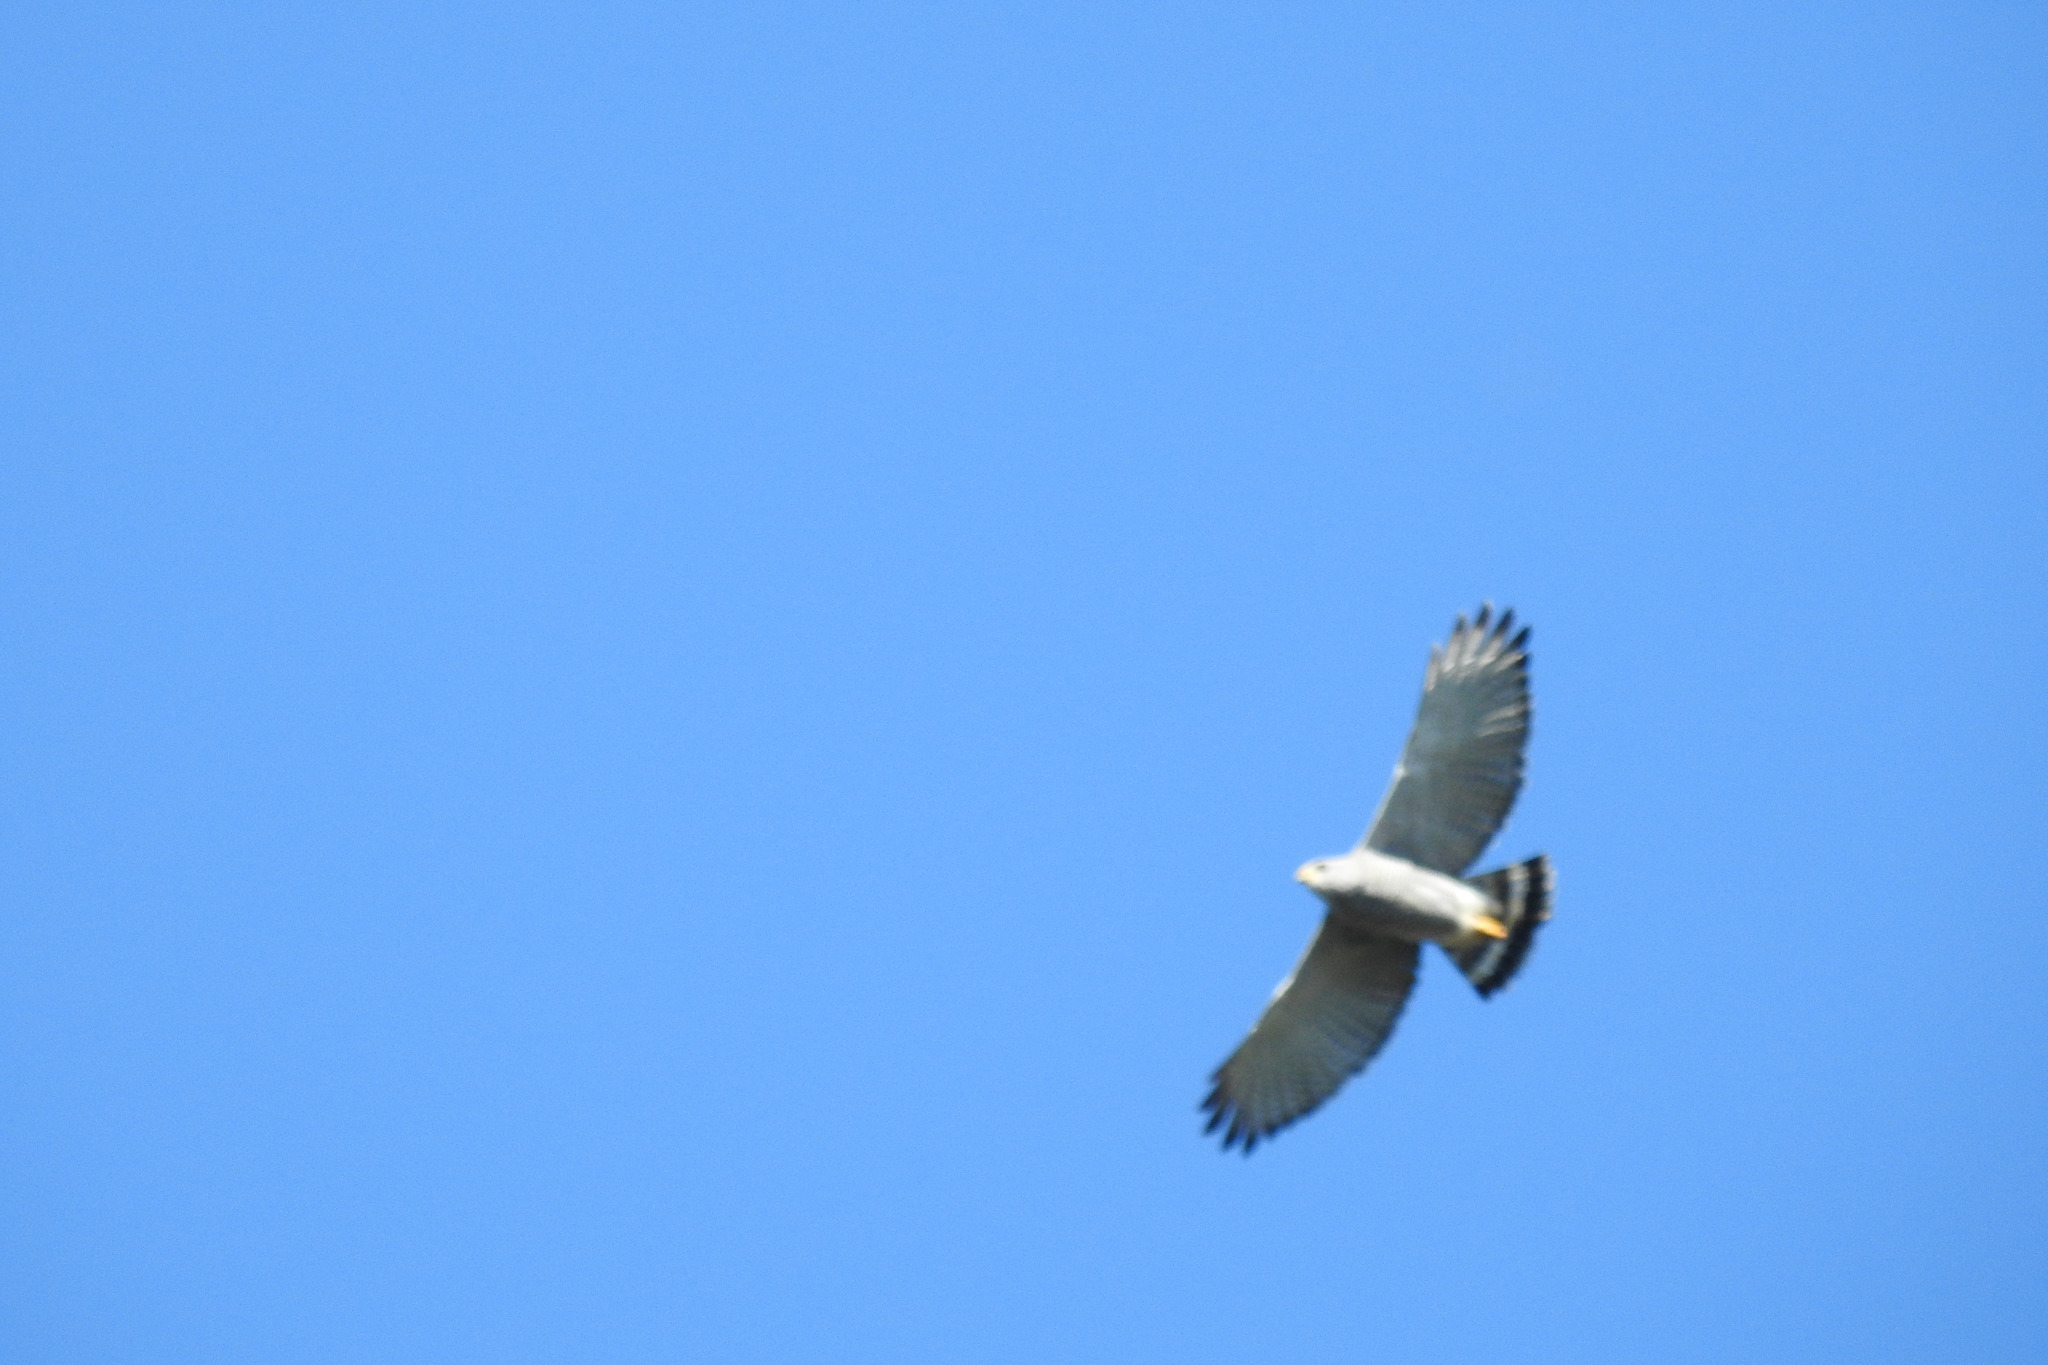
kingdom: Animalia
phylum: Chordata
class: Aves
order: Accipitriformes
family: Accipitridae
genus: Buteo
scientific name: Buteo nitidus
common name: Grey-lined hawk
